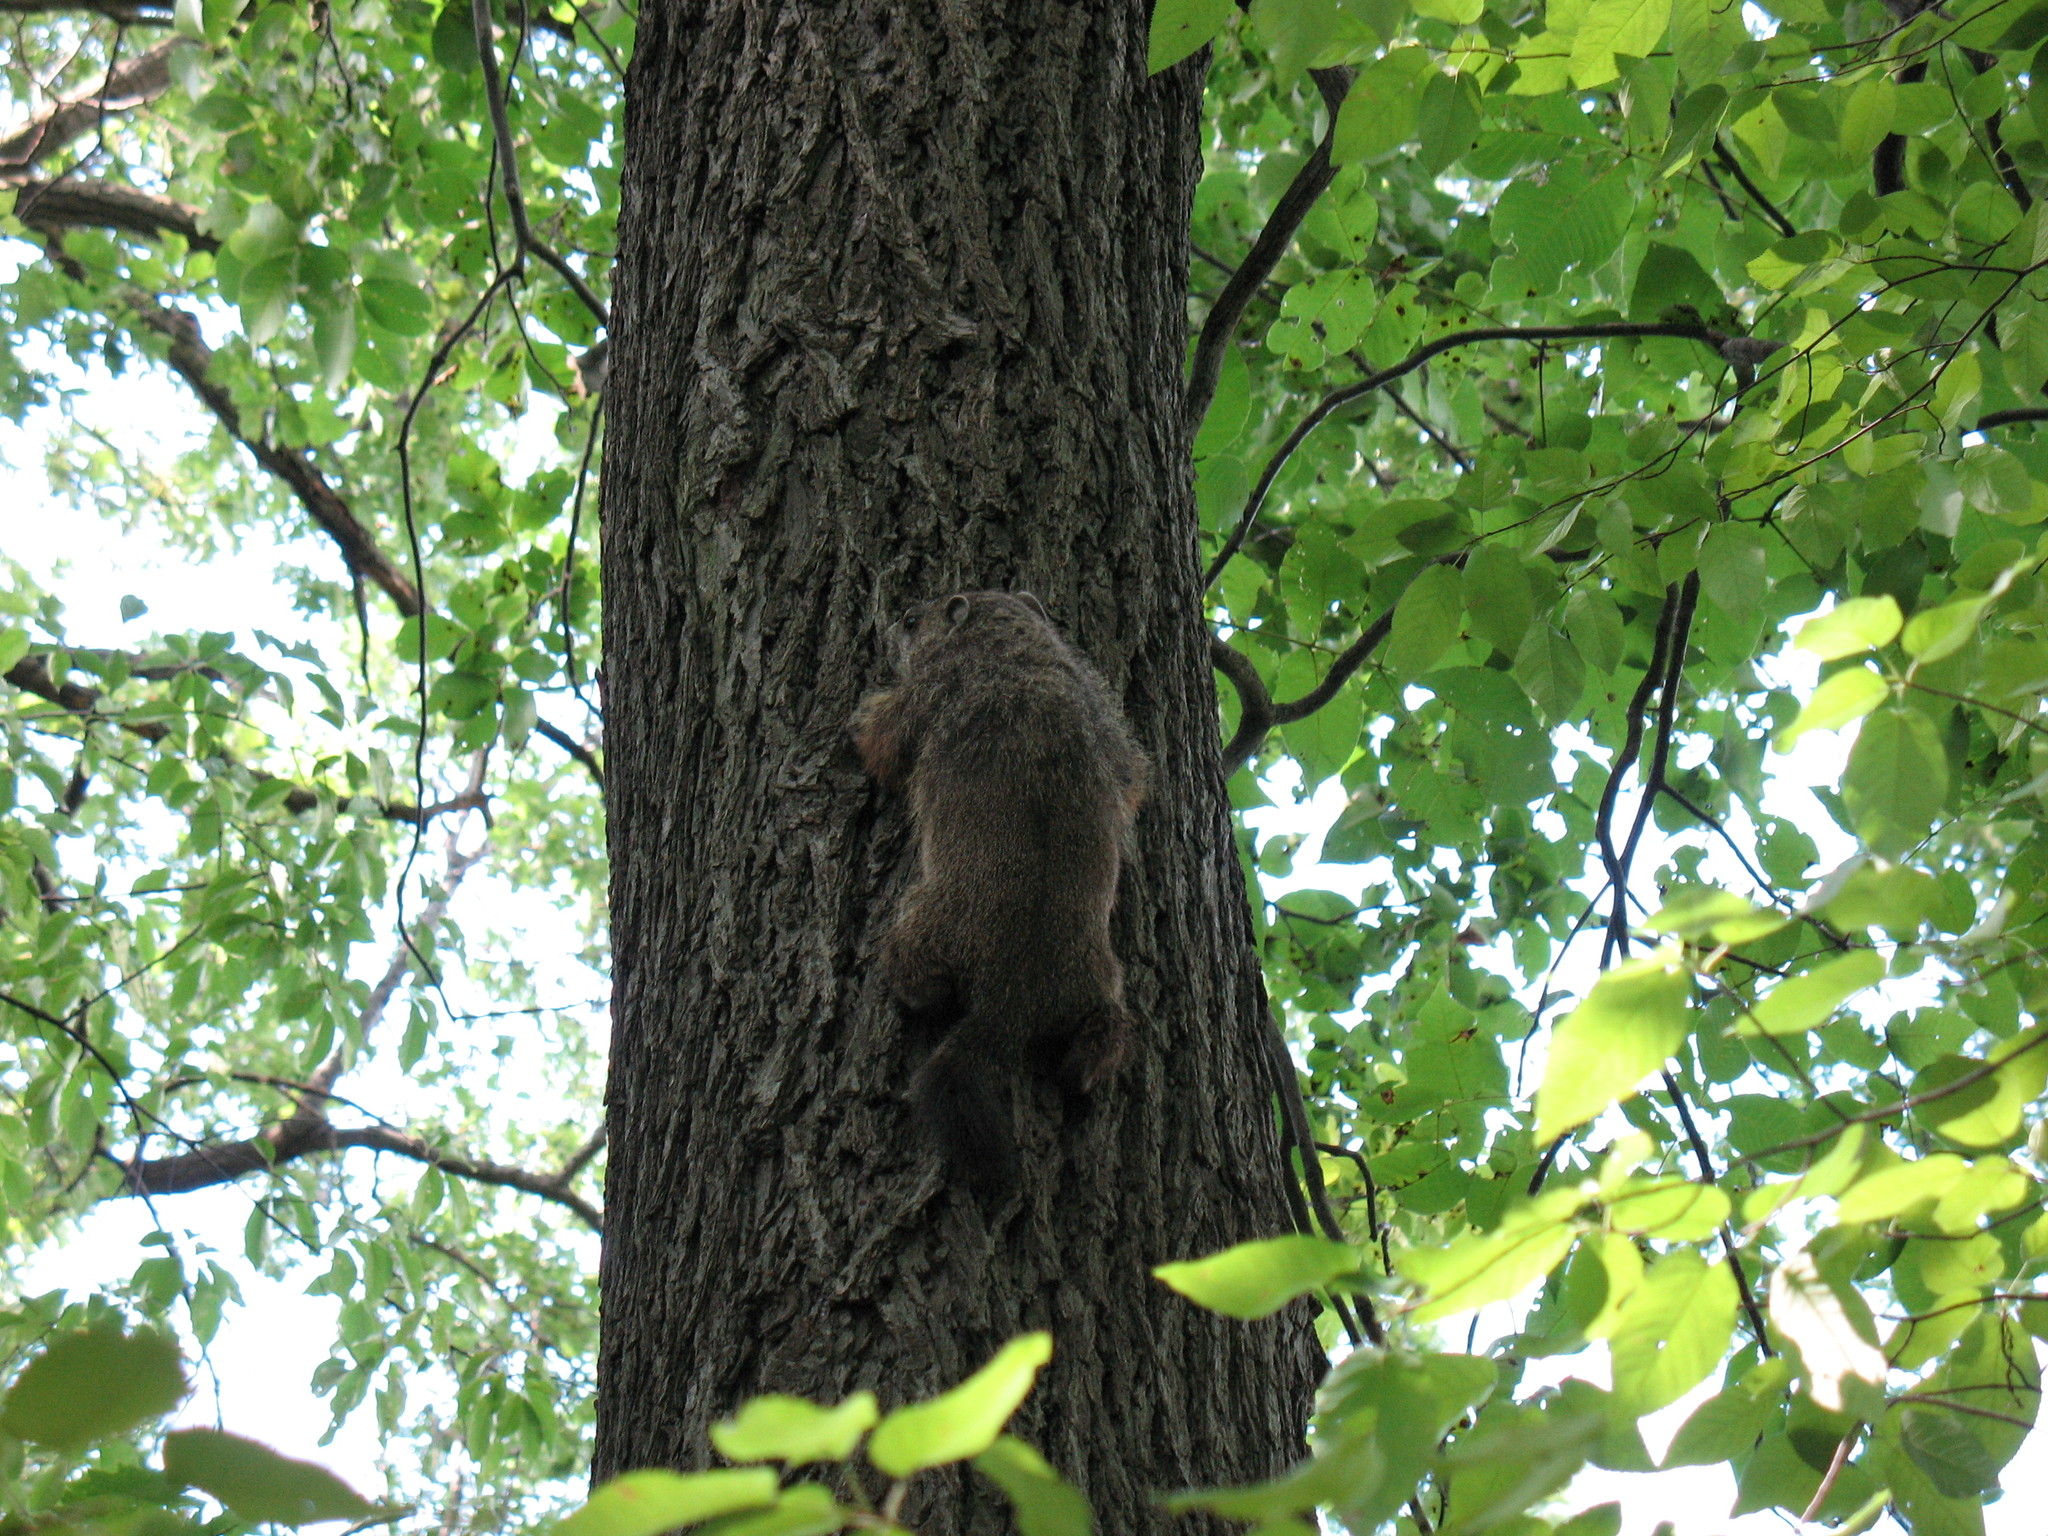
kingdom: Animalia
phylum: Chordata
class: Mammalia
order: Rodentia
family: Sciuridae
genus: Marmota
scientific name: Marmota monax
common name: Groundhog
